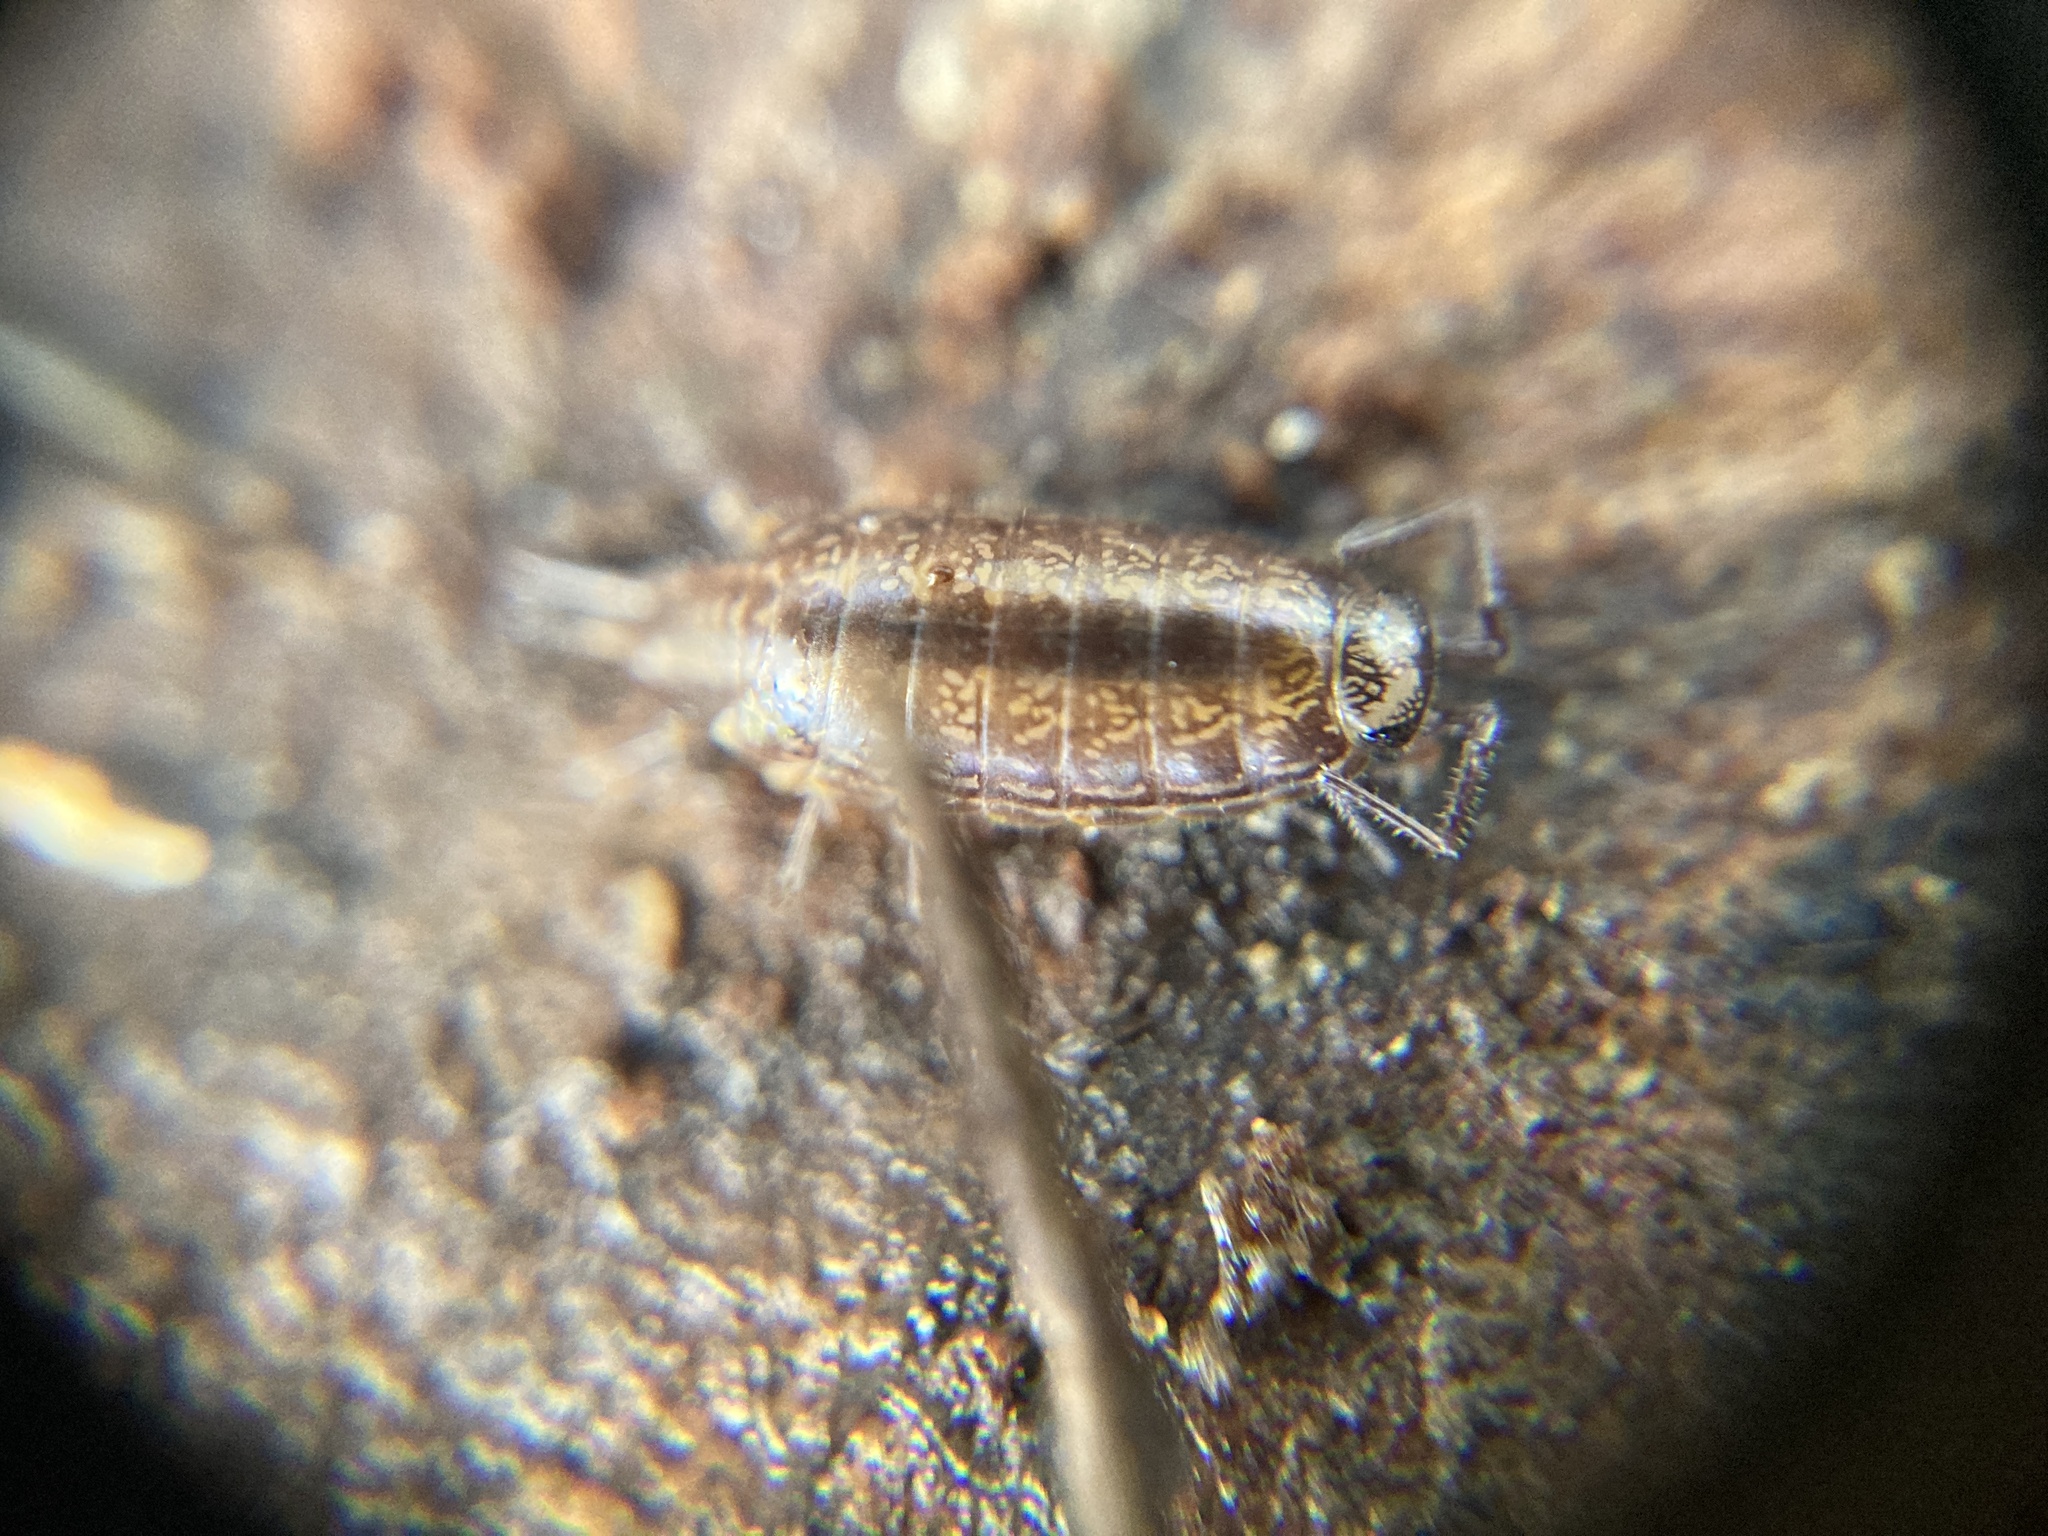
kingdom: Animalia
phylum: Arthropoda
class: Malacostraca
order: Isopoda
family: Philosciidae
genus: Atlantoscia
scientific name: Atlantoscia floridana
